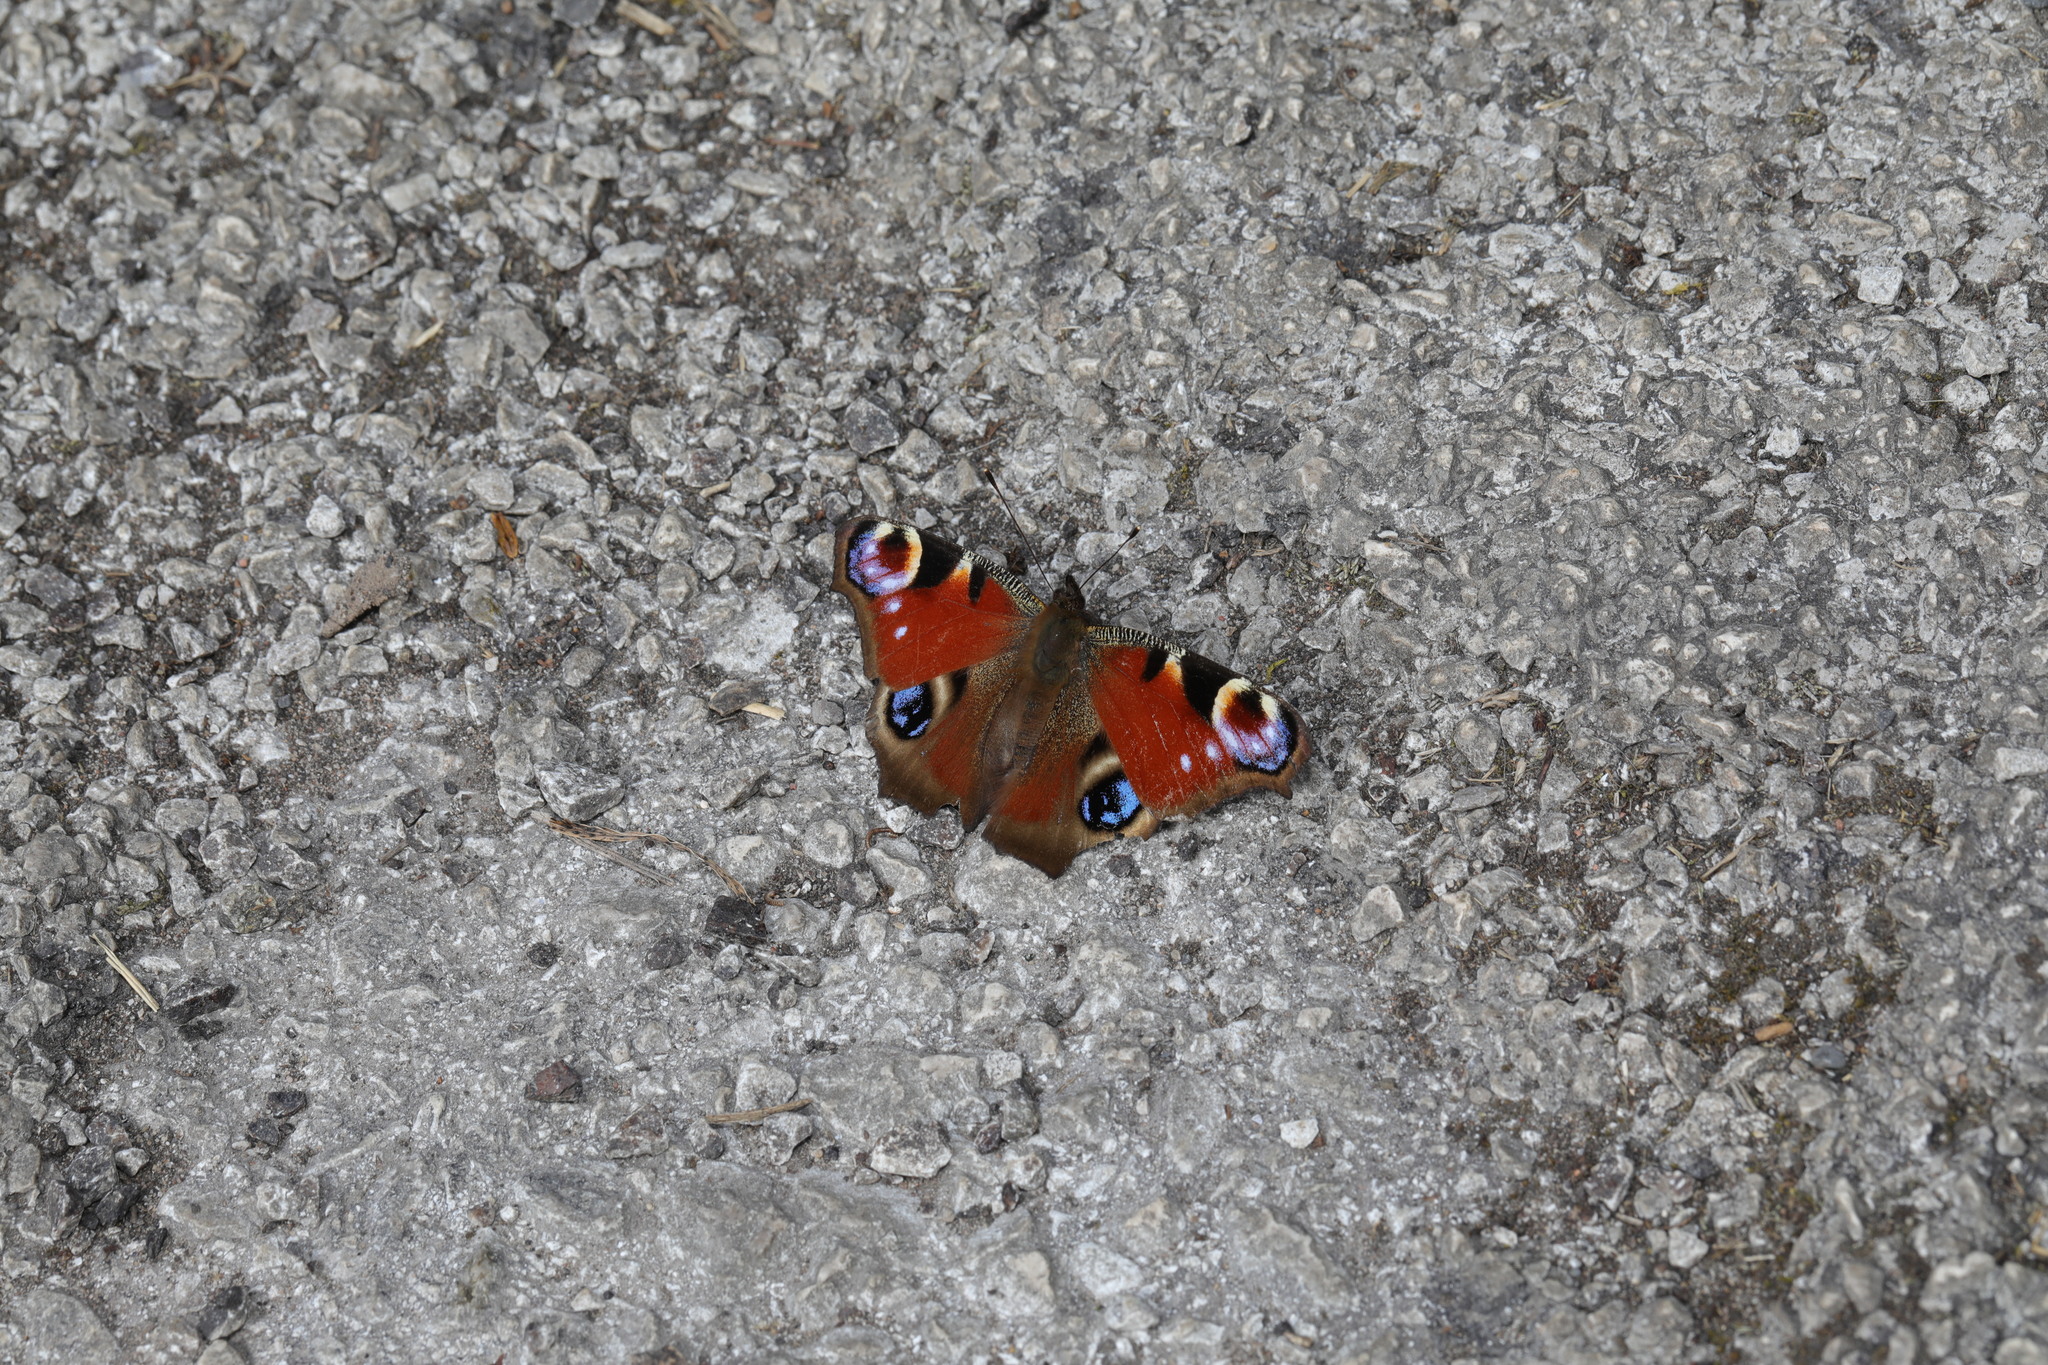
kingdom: Animalia
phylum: Arthropoda
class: Insecta
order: Lepidoptera
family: Nymphalidae
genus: Aglais
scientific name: Aglais io
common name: Peacock
